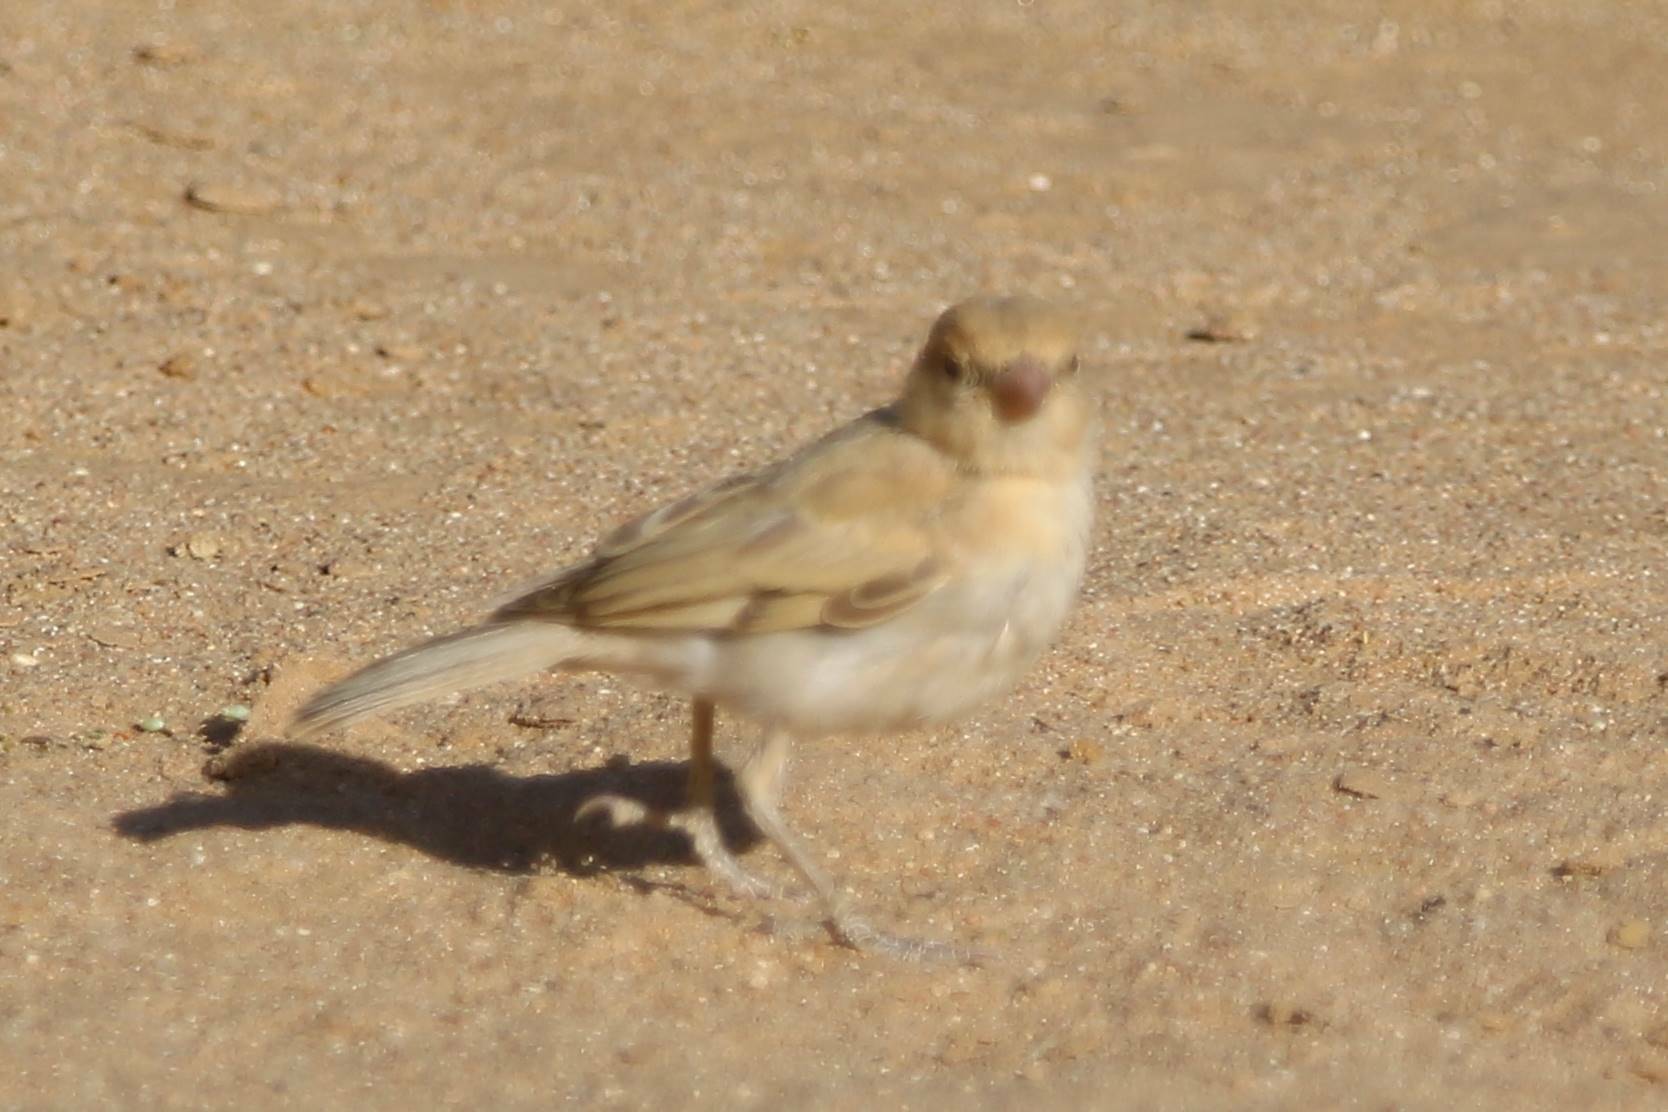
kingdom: Animalia
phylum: Chordata
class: Aves
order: Passeriformes
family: Passeridae
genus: Passer
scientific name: Passer simplex
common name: Desert sparrow
